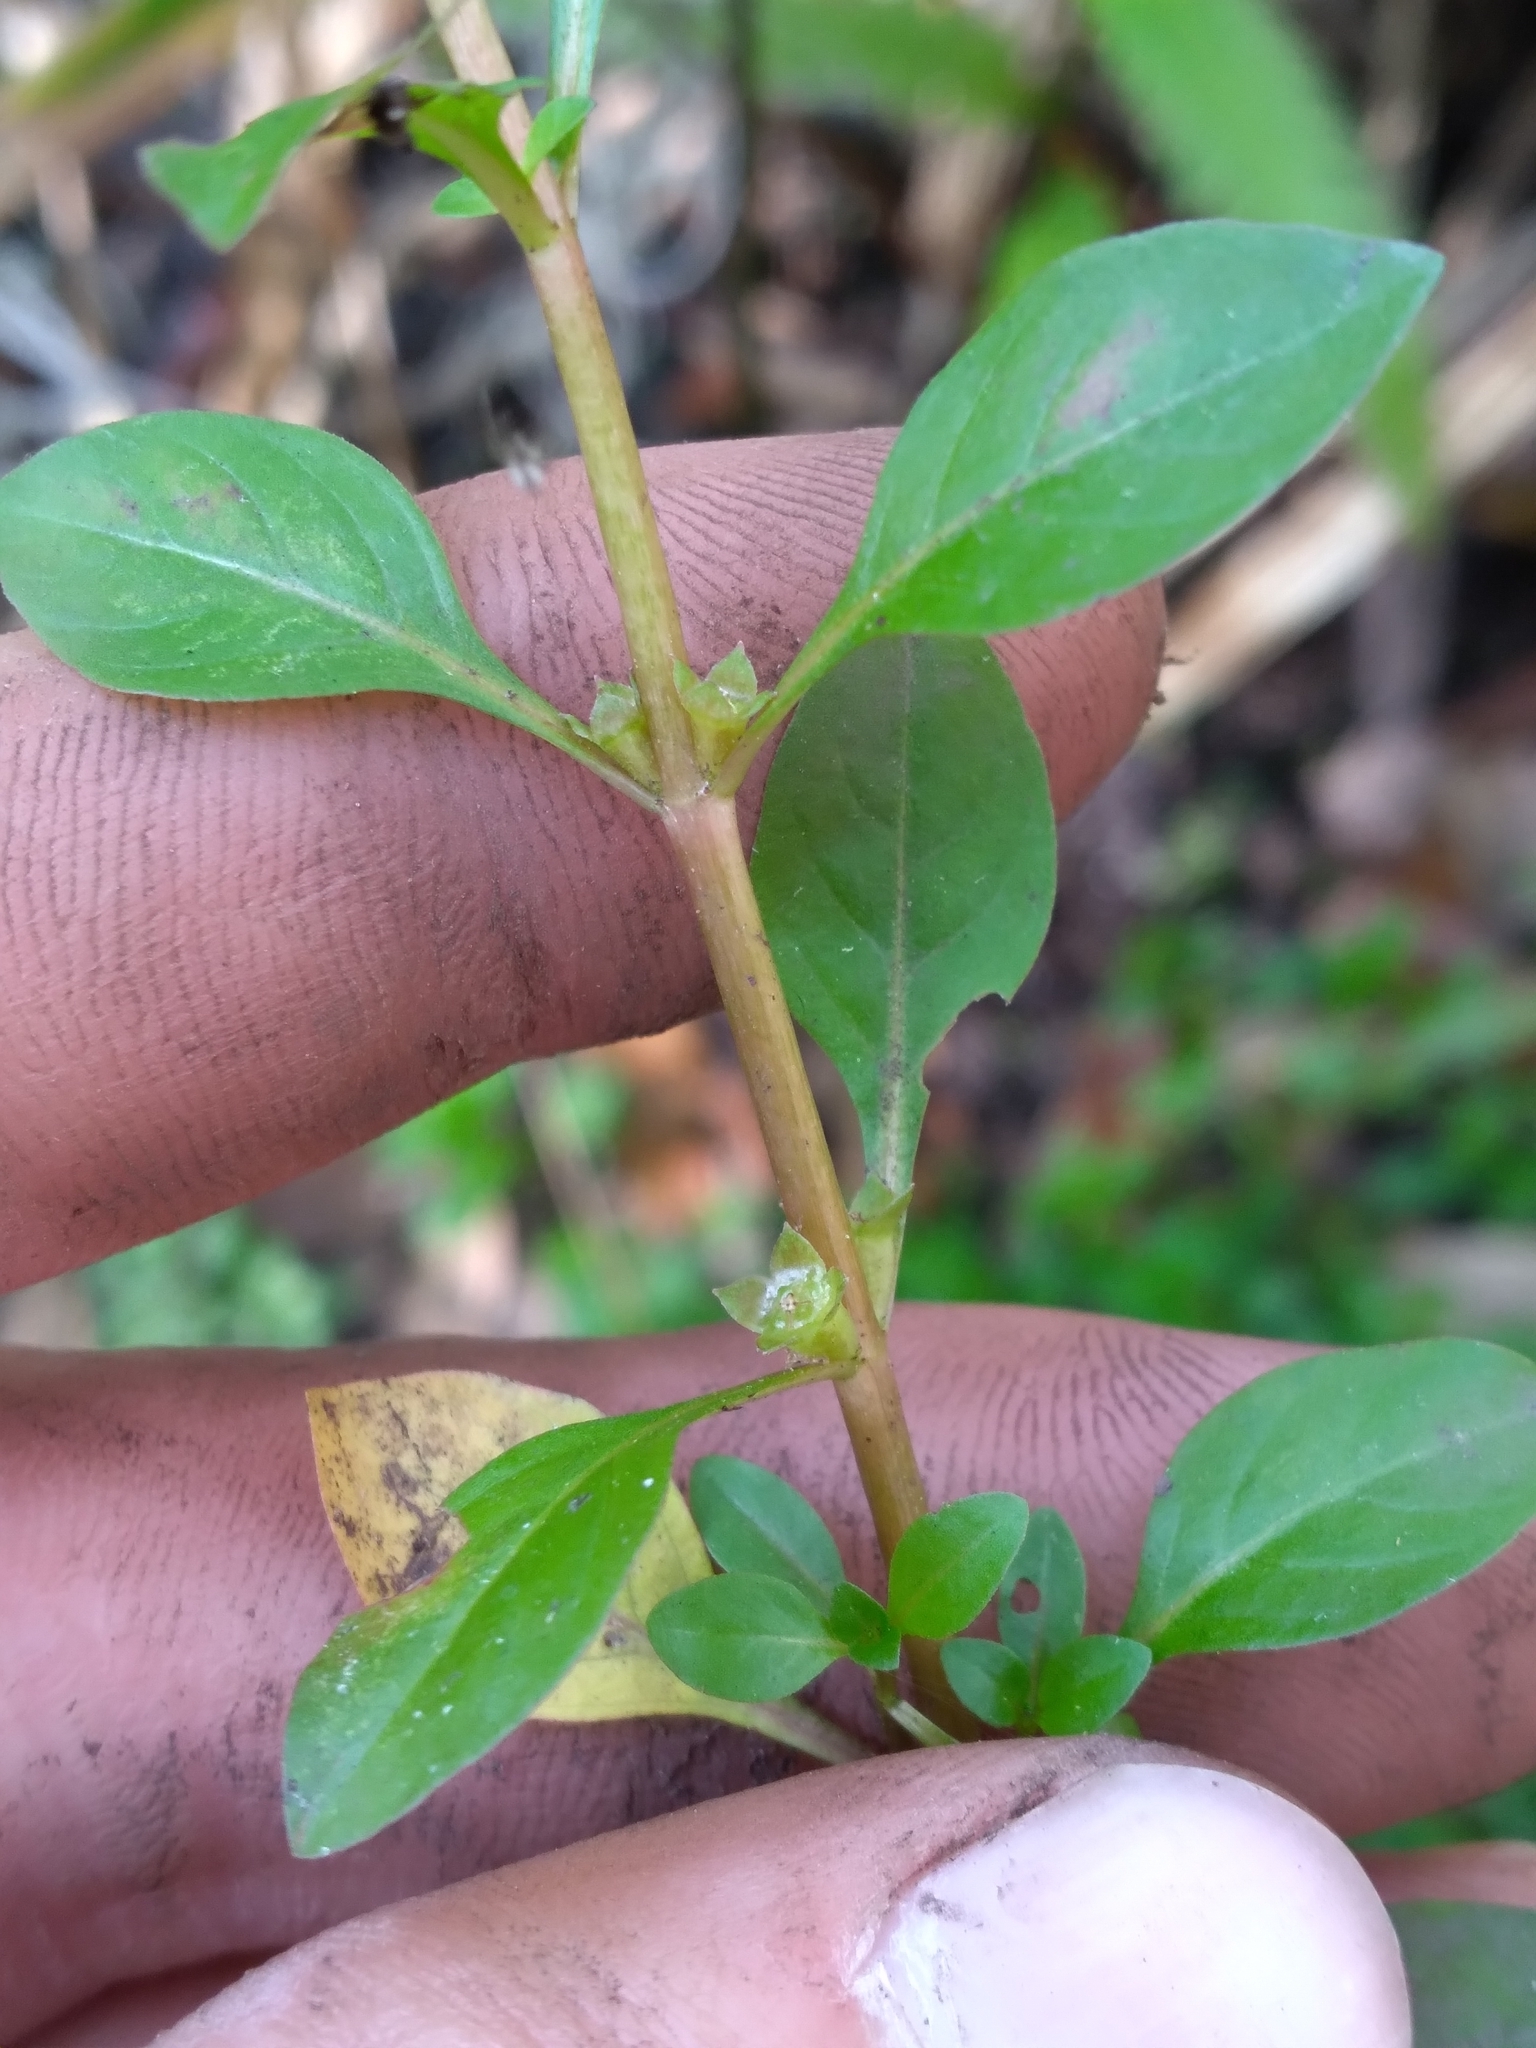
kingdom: Plantae
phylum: Tracheophyta
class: Magnoliopsida
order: Myrtales
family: Onagraceae
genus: Ludwigia
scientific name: Ludwigia palustris
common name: Hampshire-purslane
